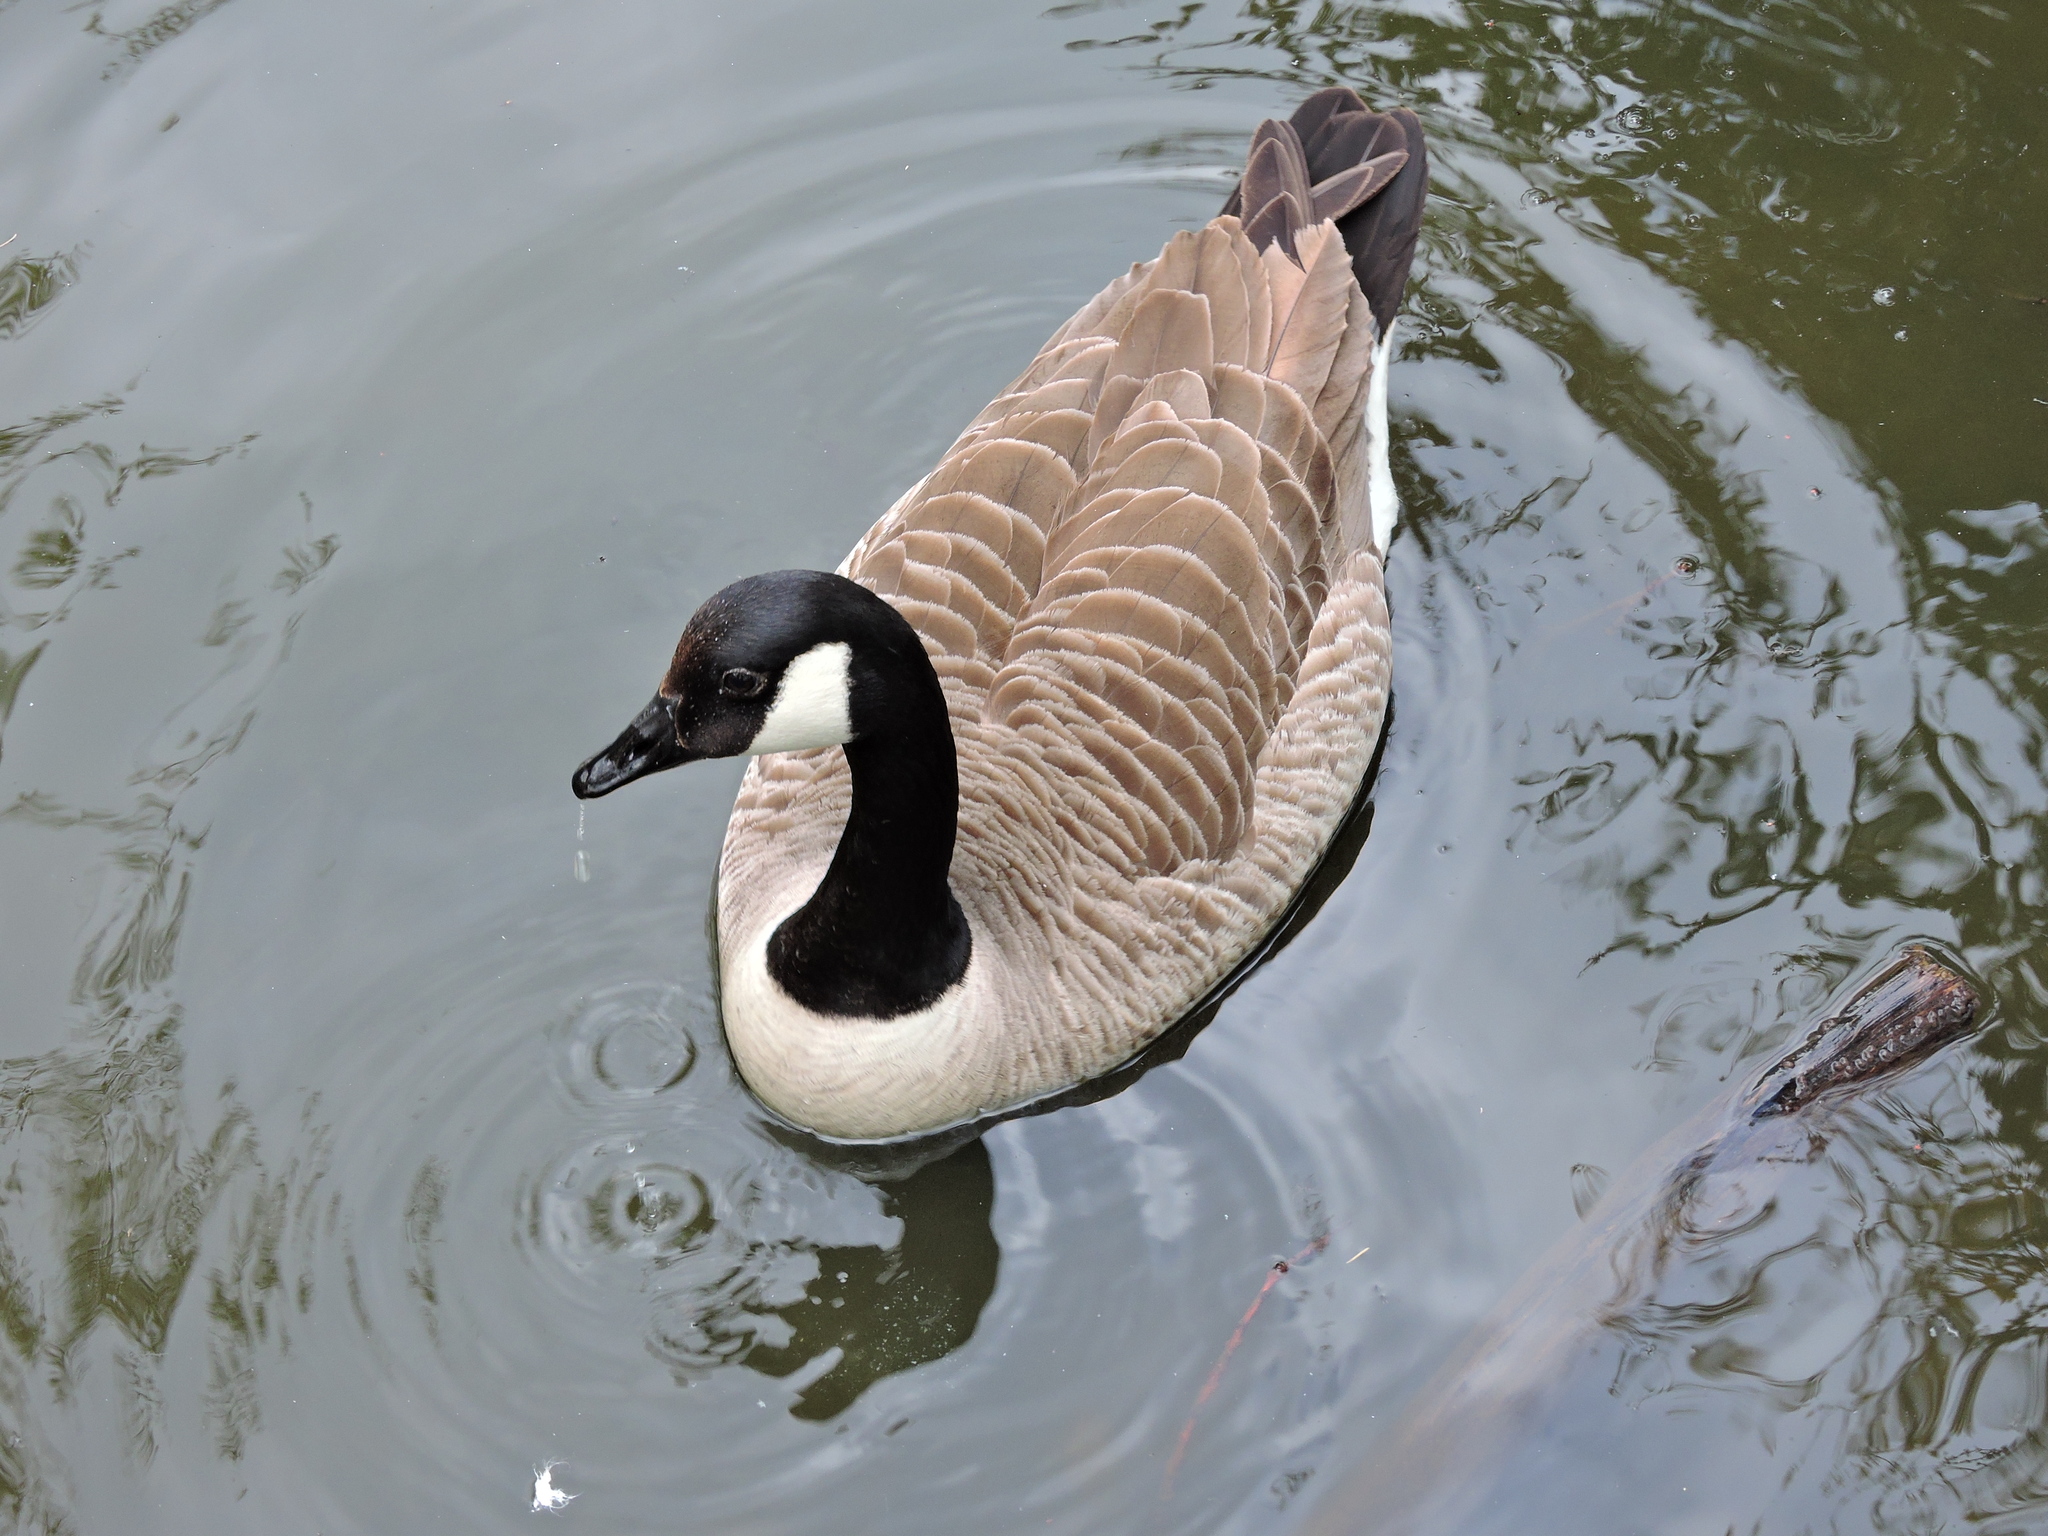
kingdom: Animalia
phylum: Chordata
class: Aves
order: Anseriformes
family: Anatidae
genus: Branta
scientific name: Branta canadensis
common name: Canada goose
